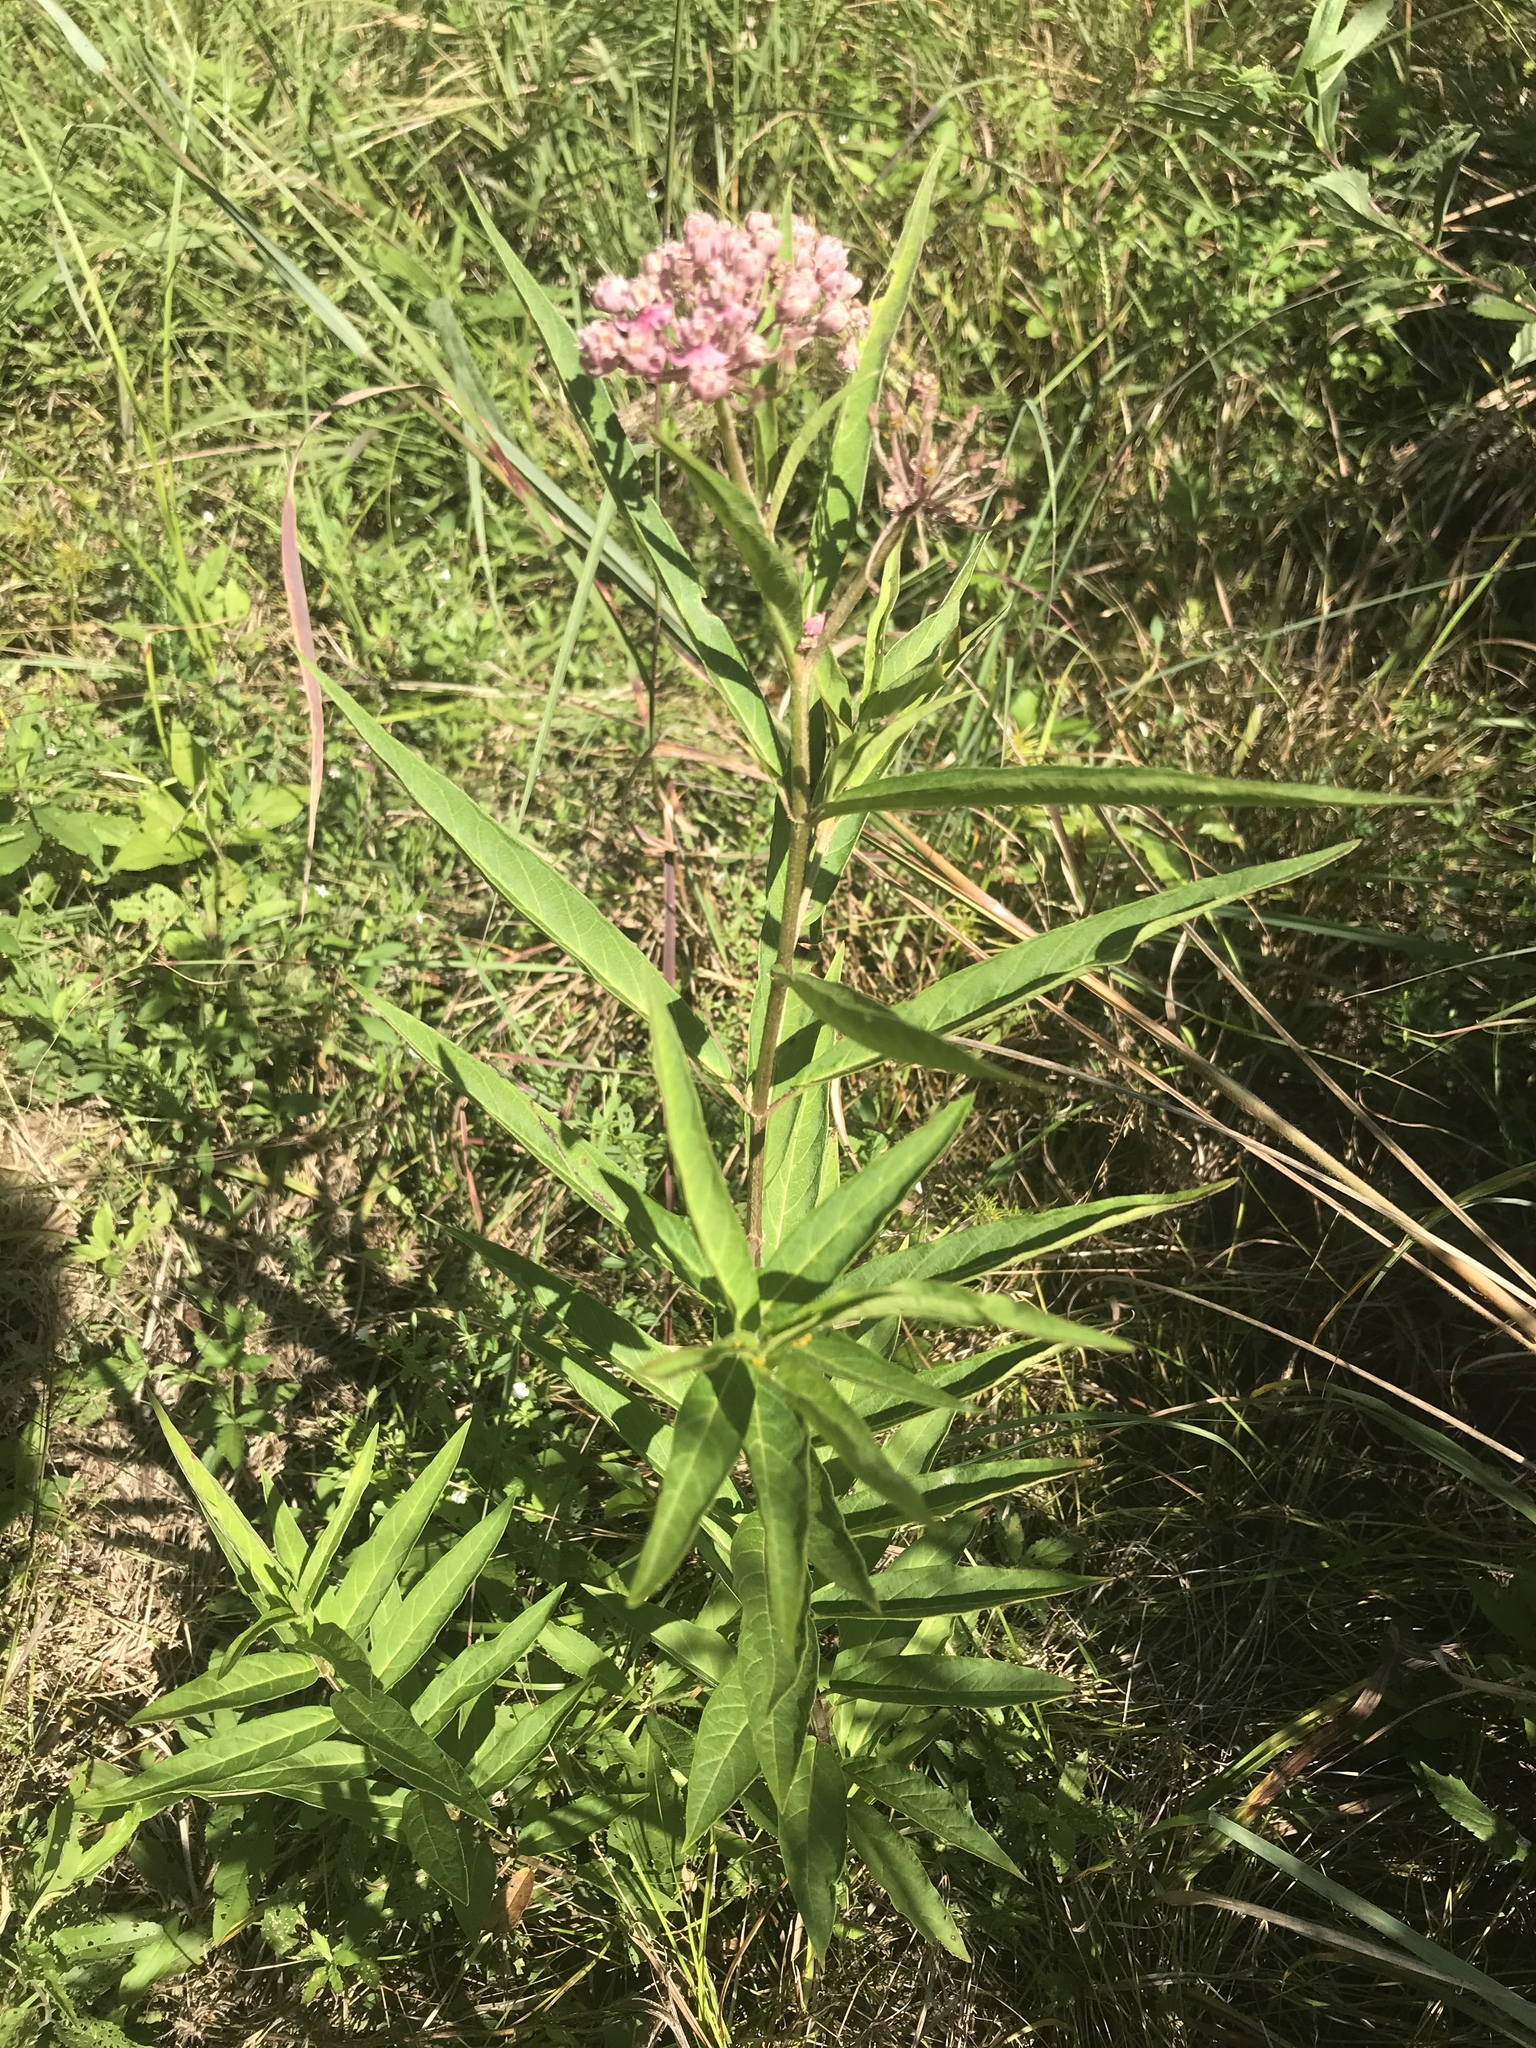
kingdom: Plantae
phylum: Tracheophyta
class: Magnoliopsida
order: Gentianales
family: Apocynaceae
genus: Asclepias
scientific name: Asclepias incarnata
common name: Swamp milkweed
